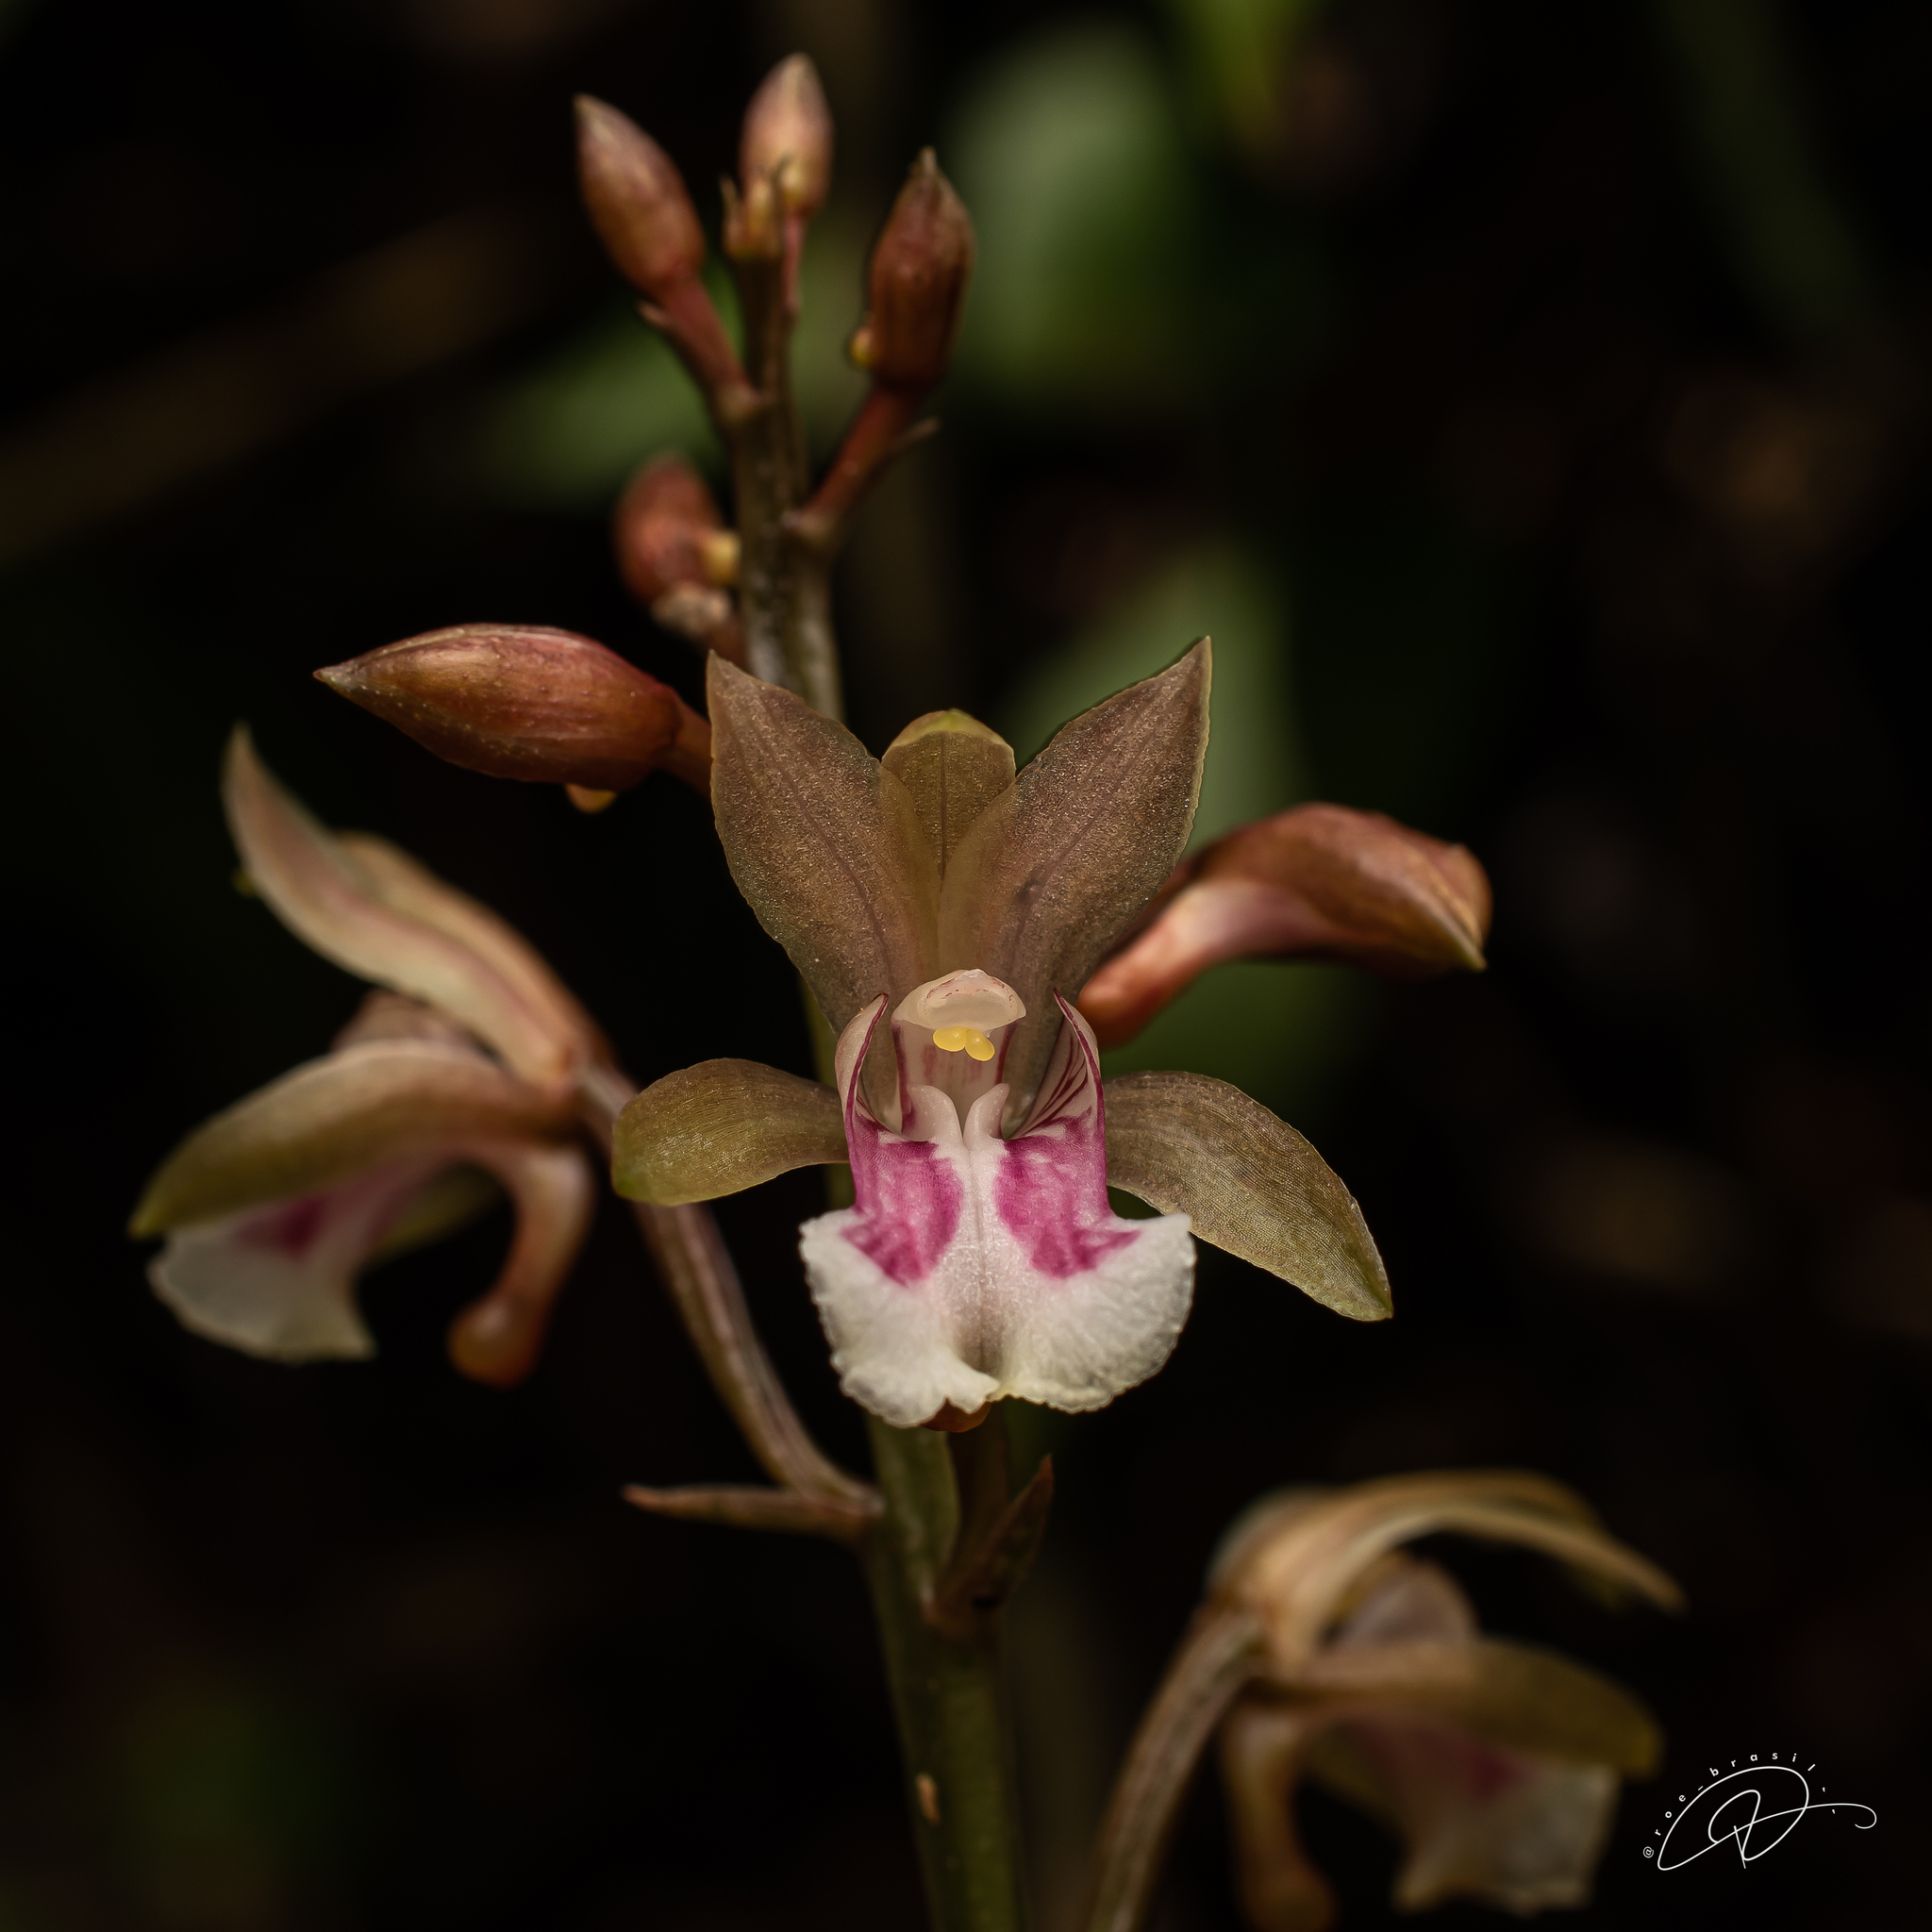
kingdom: Plantae
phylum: Tracheophyta
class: Liliopsida
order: Asparagales
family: Orchidaceae
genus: Eulophia
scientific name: Eulophia maculata
